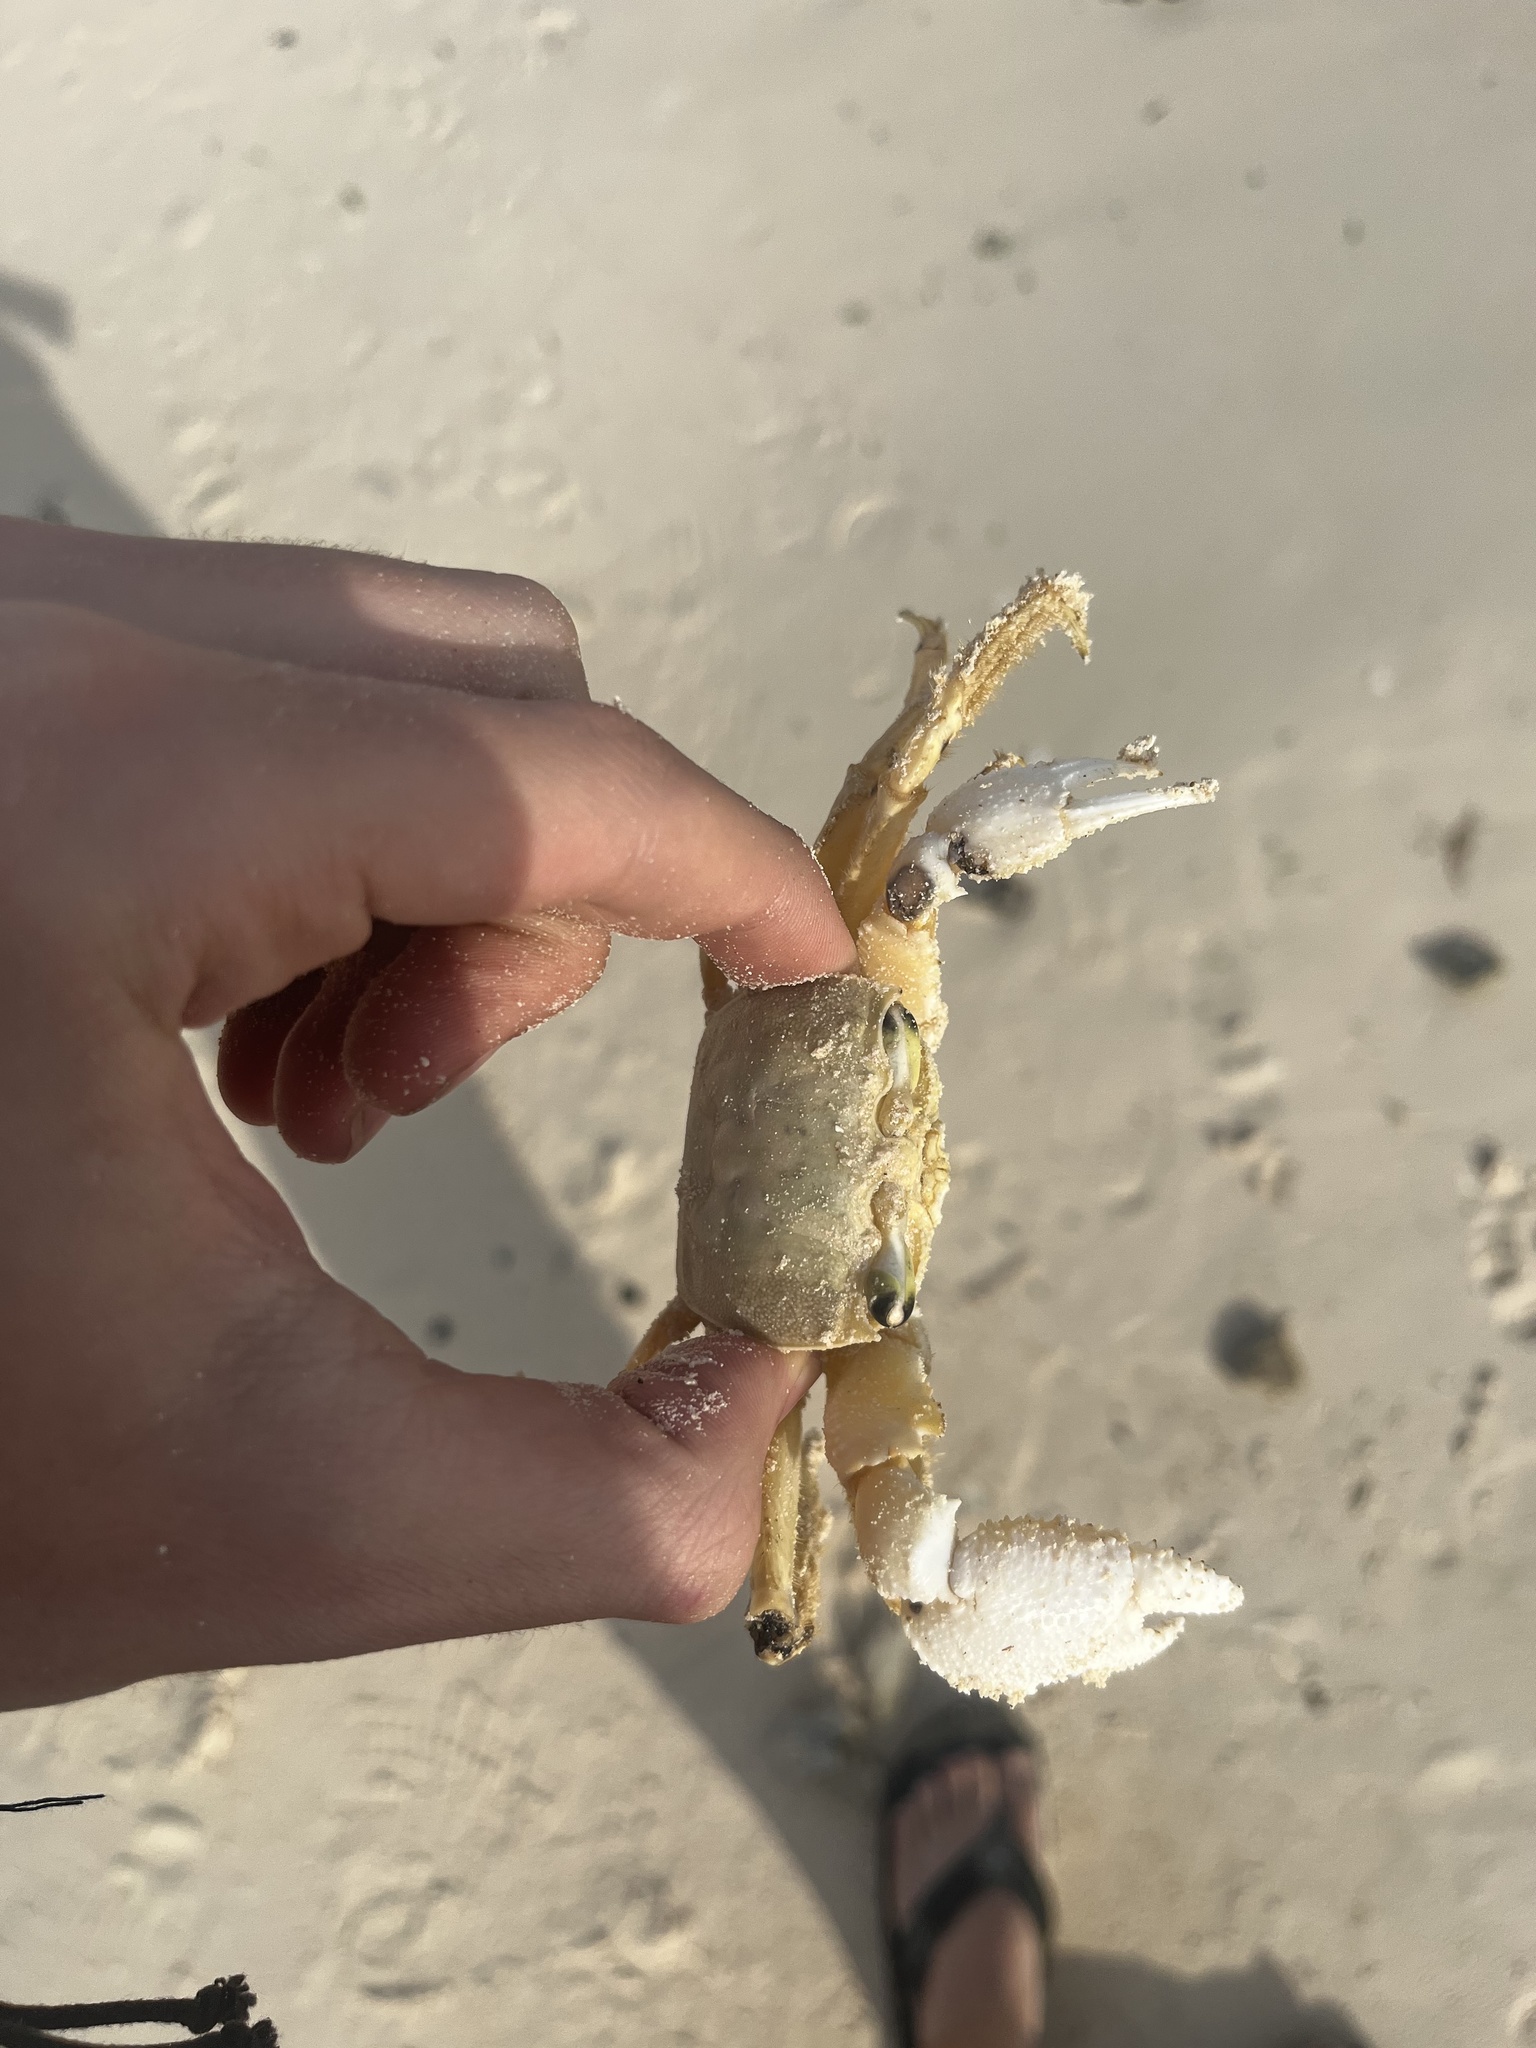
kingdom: Animalia
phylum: Arthropoda
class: Malacostraca
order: Decapoda
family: Ocypodidae
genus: Ocypode
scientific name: Ocypode quadrata
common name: Ghost crab
